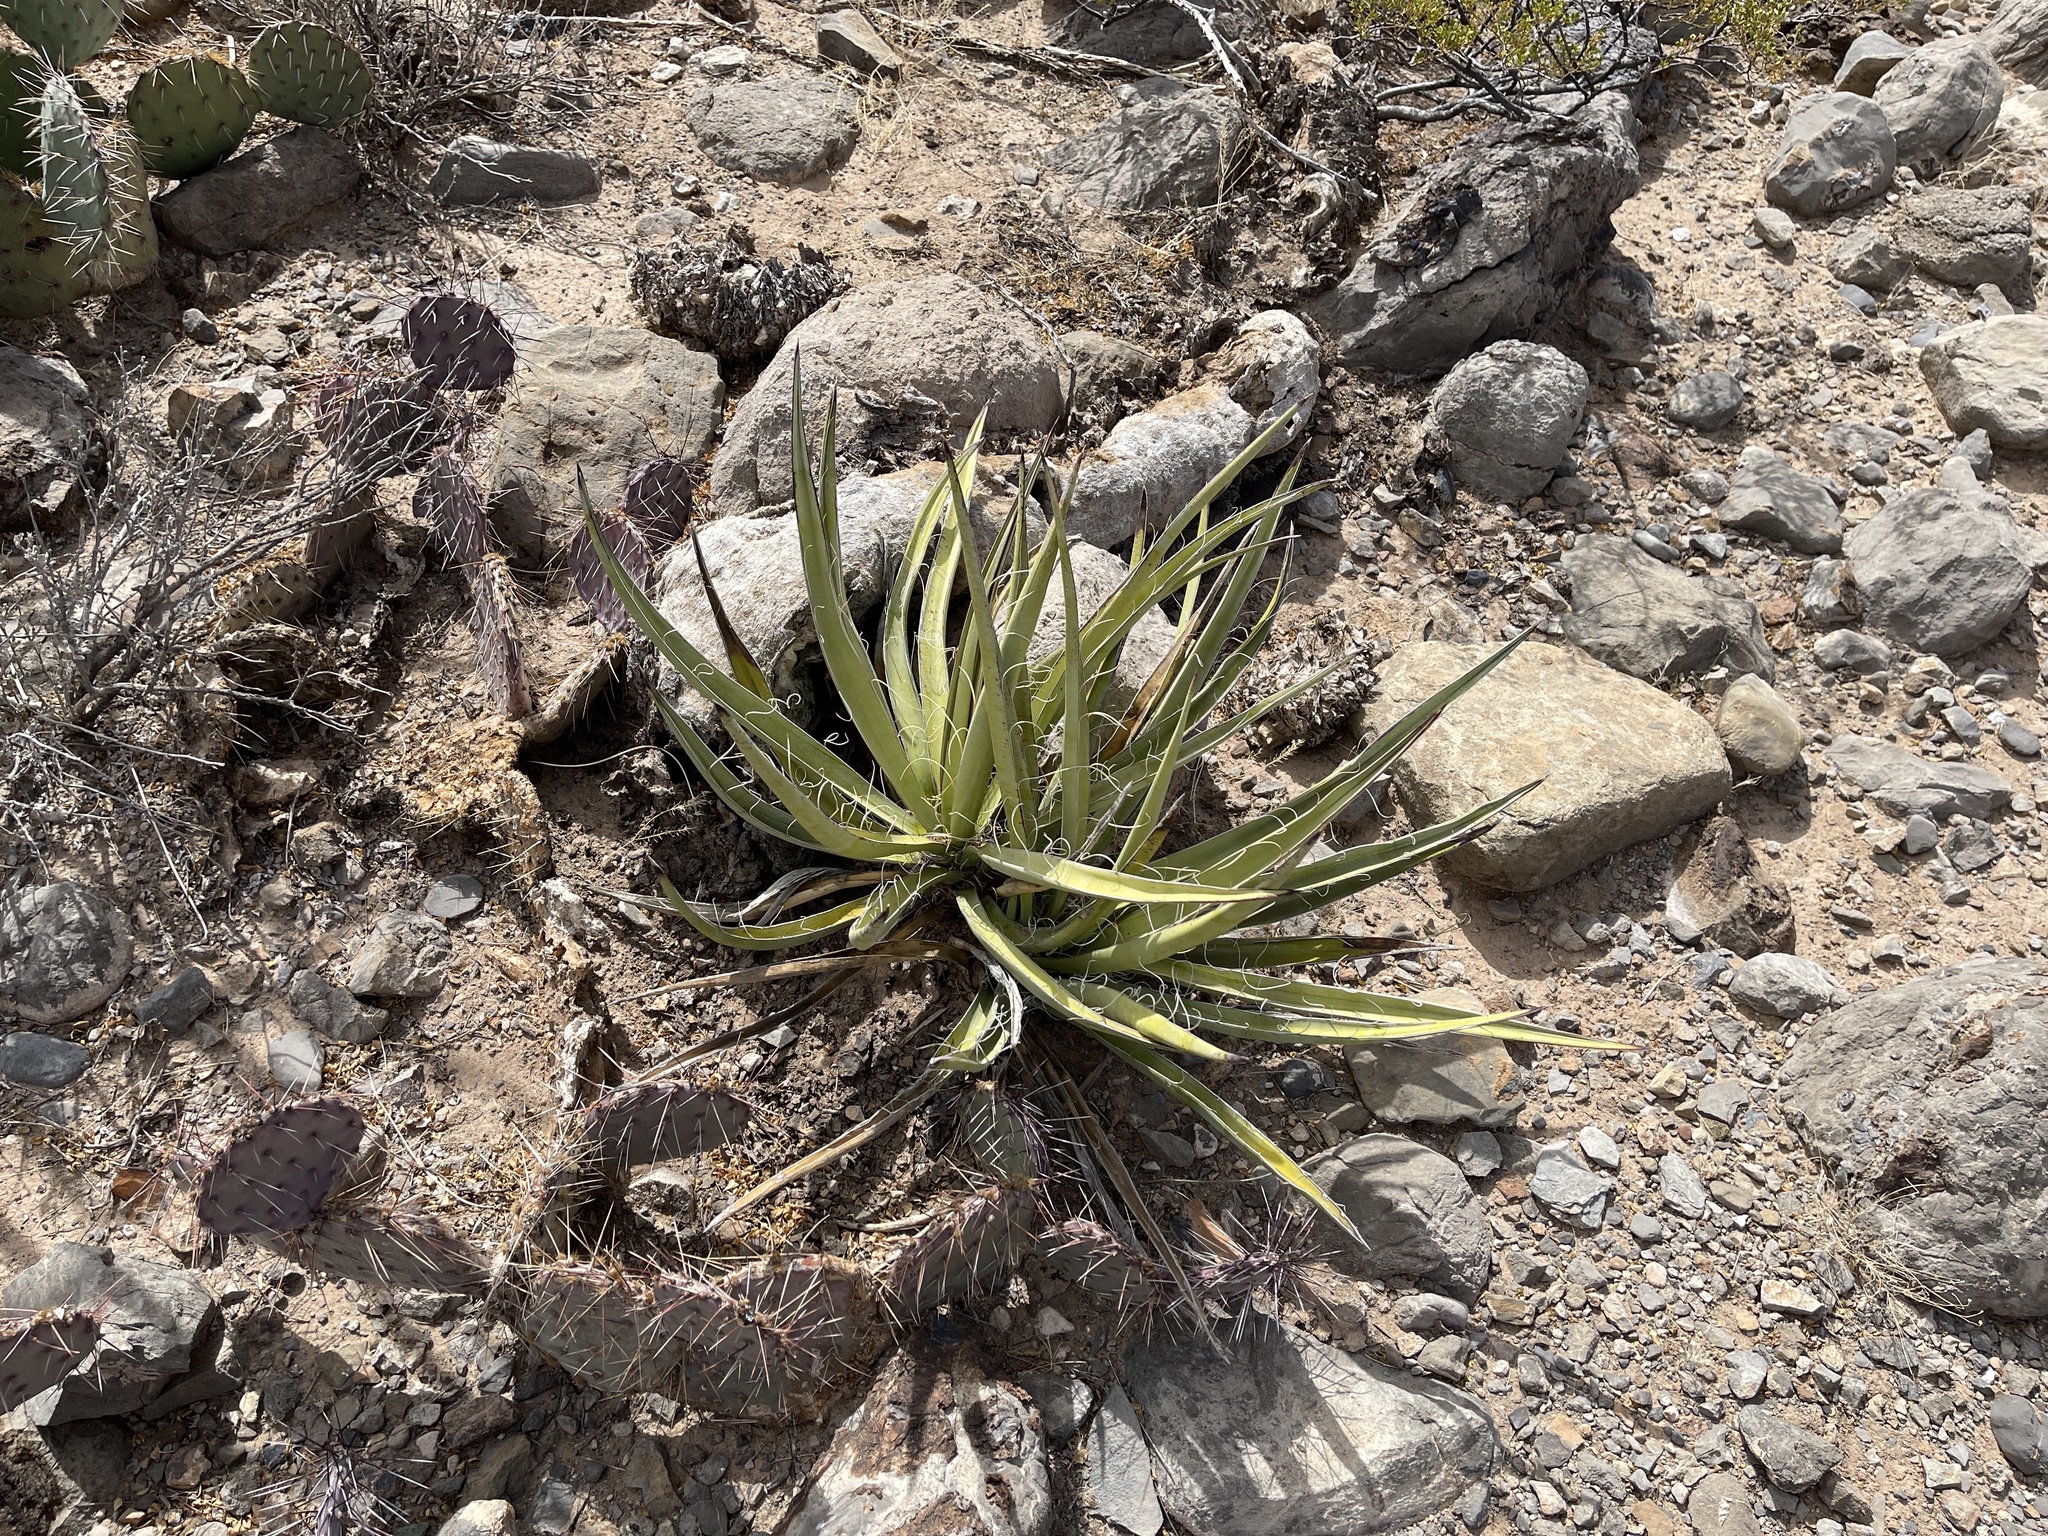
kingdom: Plantae
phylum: Tracheophyta
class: Liliopsida
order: Asparagales
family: Asparagaceae
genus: Yucca
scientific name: Yucca baccata
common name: Banana yucca
